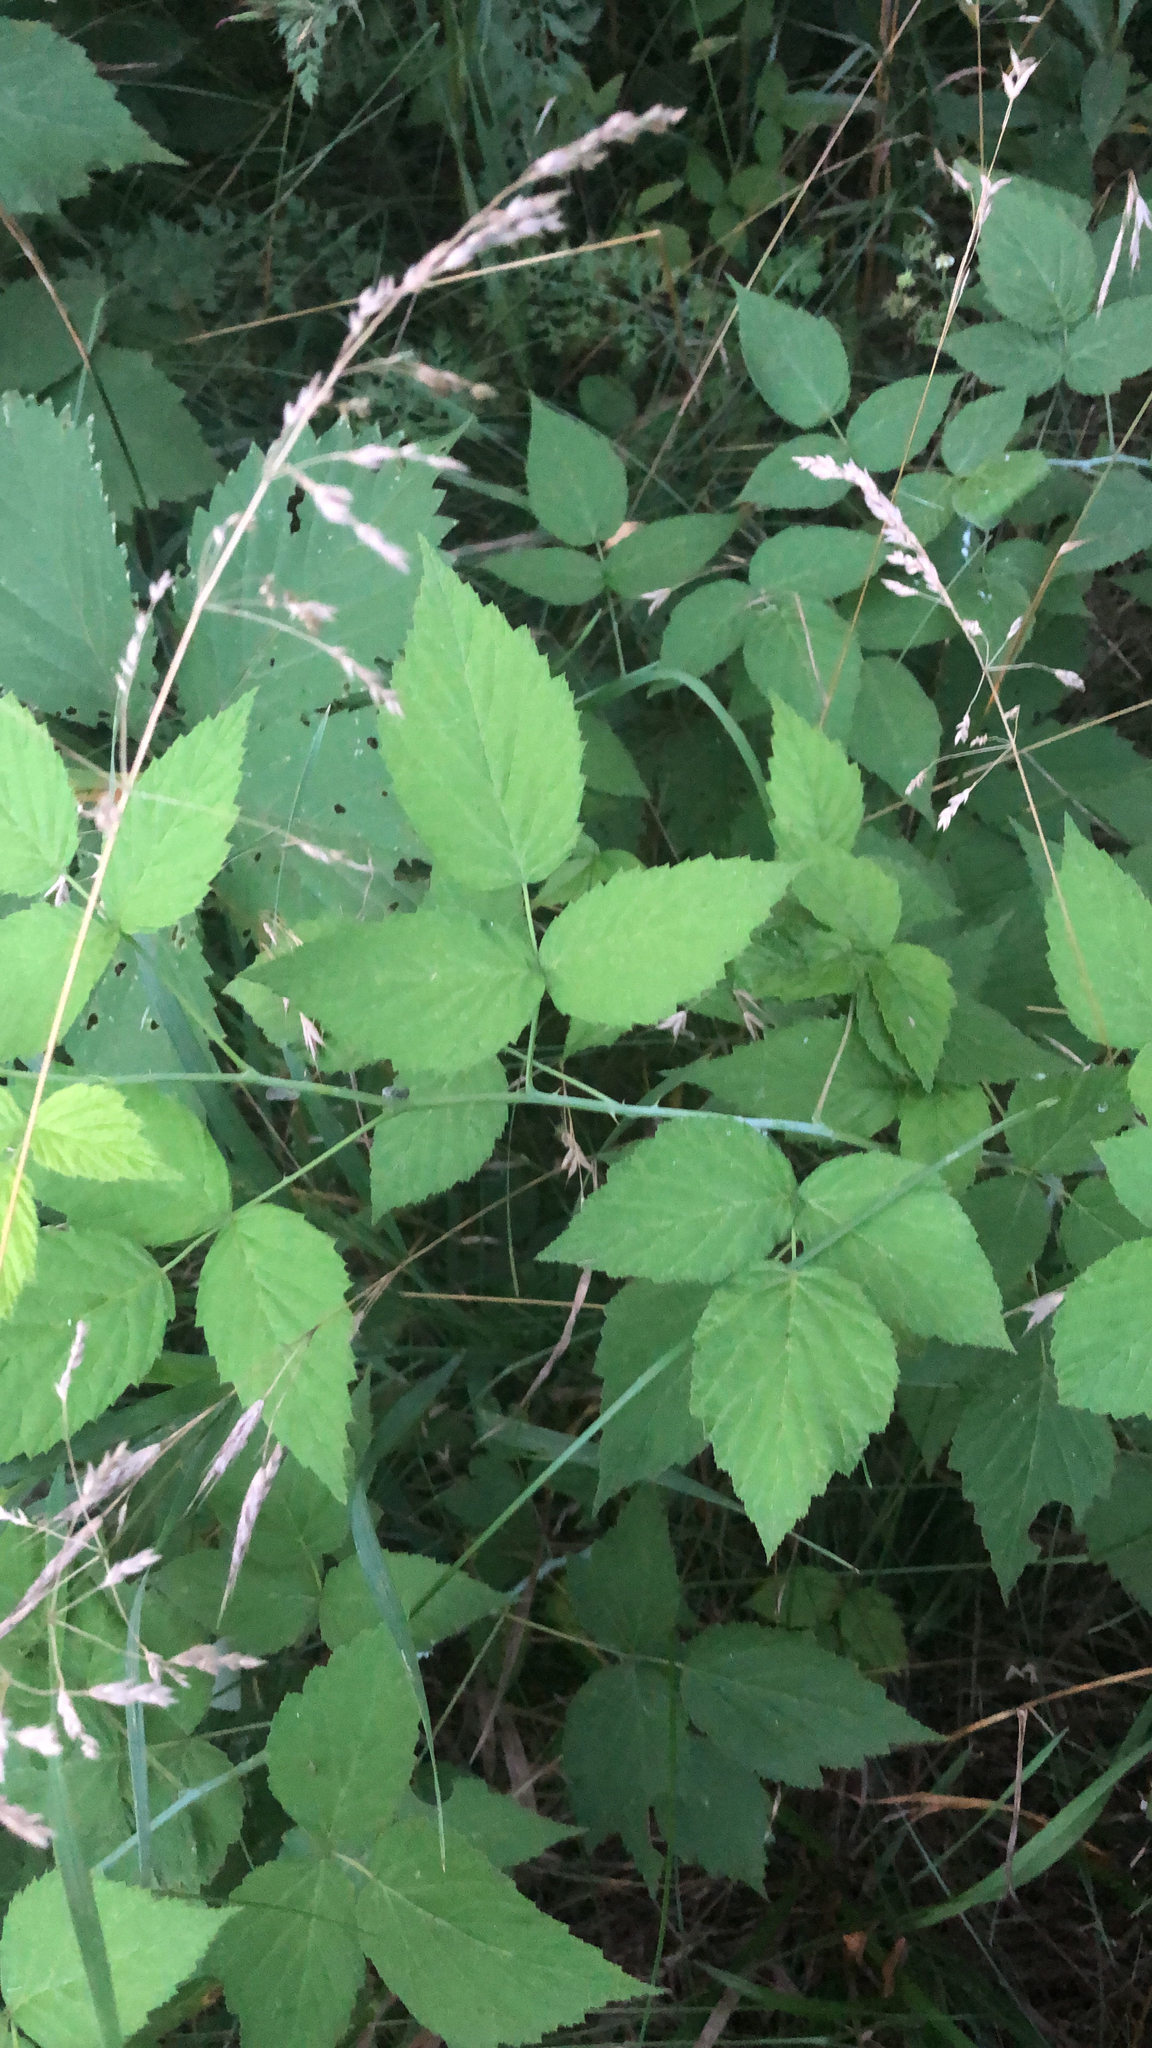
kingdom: Plantae
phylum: Tracheophyta
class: Magnoliopsida
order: Rosales
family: Rosaceae
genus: Rubus
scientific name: Rubus occidentalis
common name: Black raspberry
